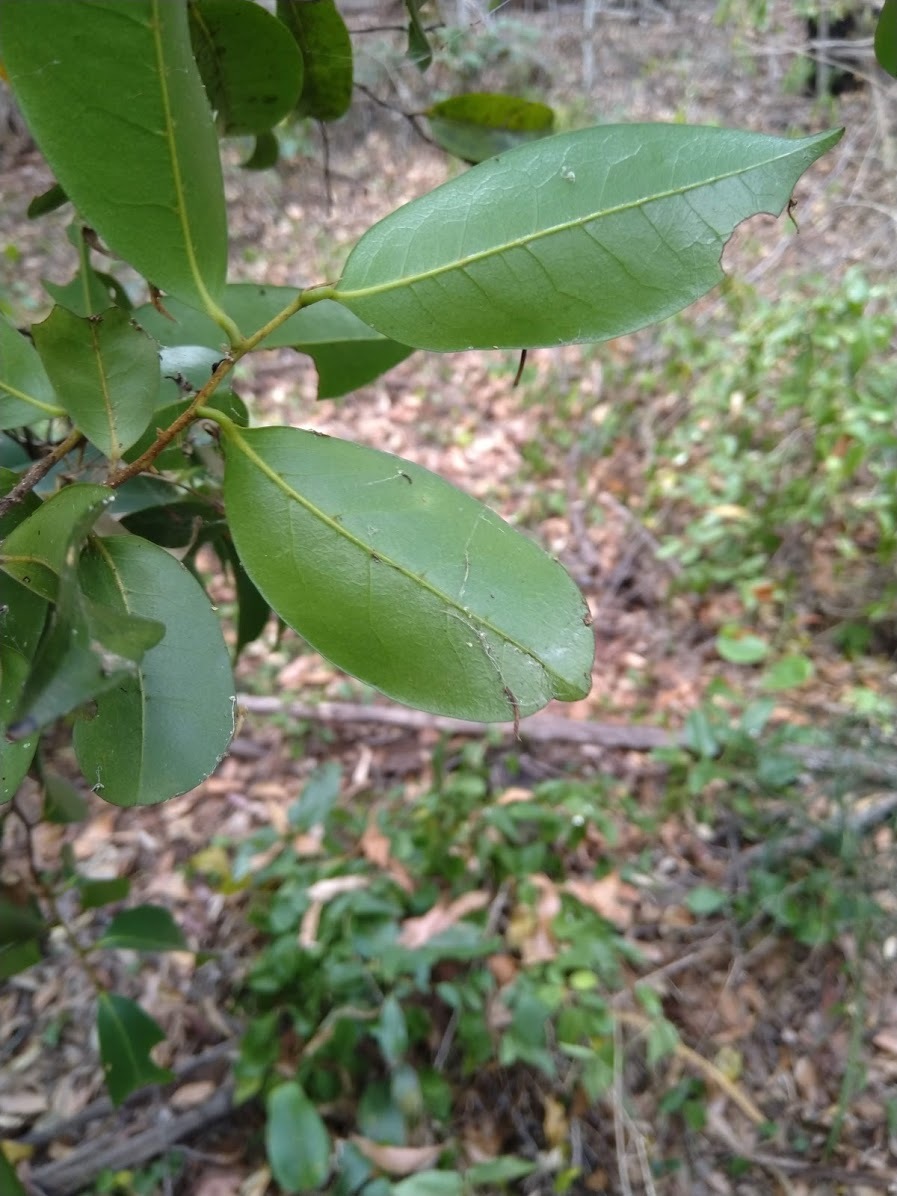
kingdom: Plantae
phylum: Tracheophyta
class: Magnoliopsida
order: Magnoliales
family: Annonaceae
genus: Hubera
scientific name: Hubera nitidissima
